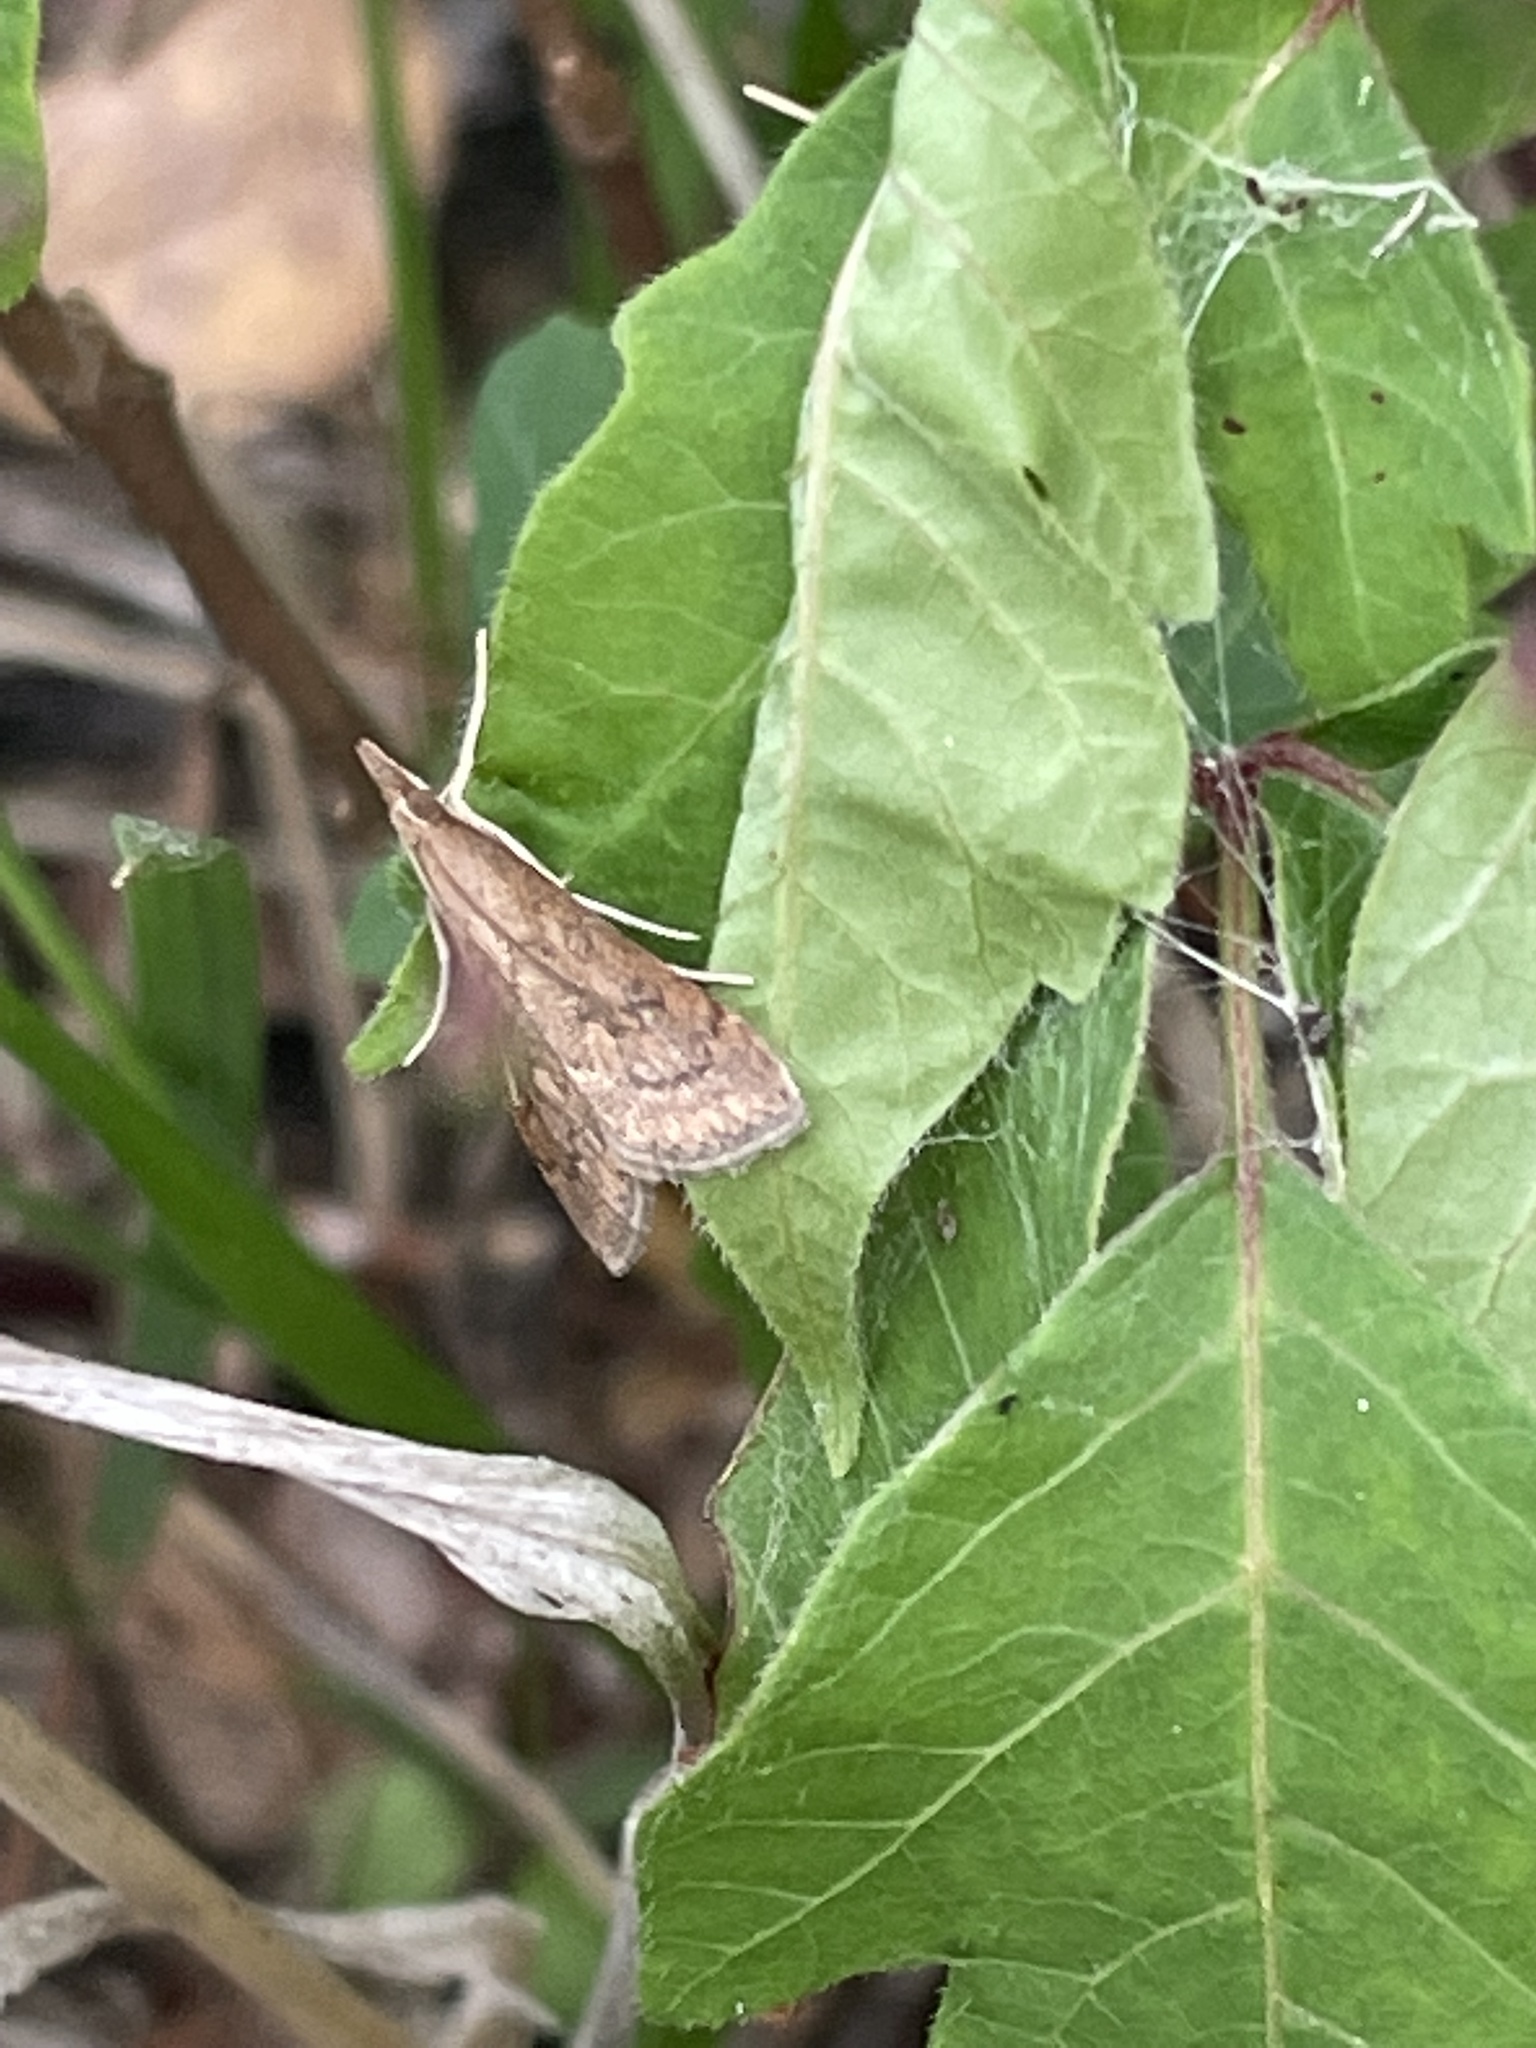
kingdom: Animalia
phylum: Arthropoda
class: Insecta
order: Lepidoptera
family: Crambidae
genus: Udea
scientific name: Udea rubigalis
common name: Celery leaftier moth
